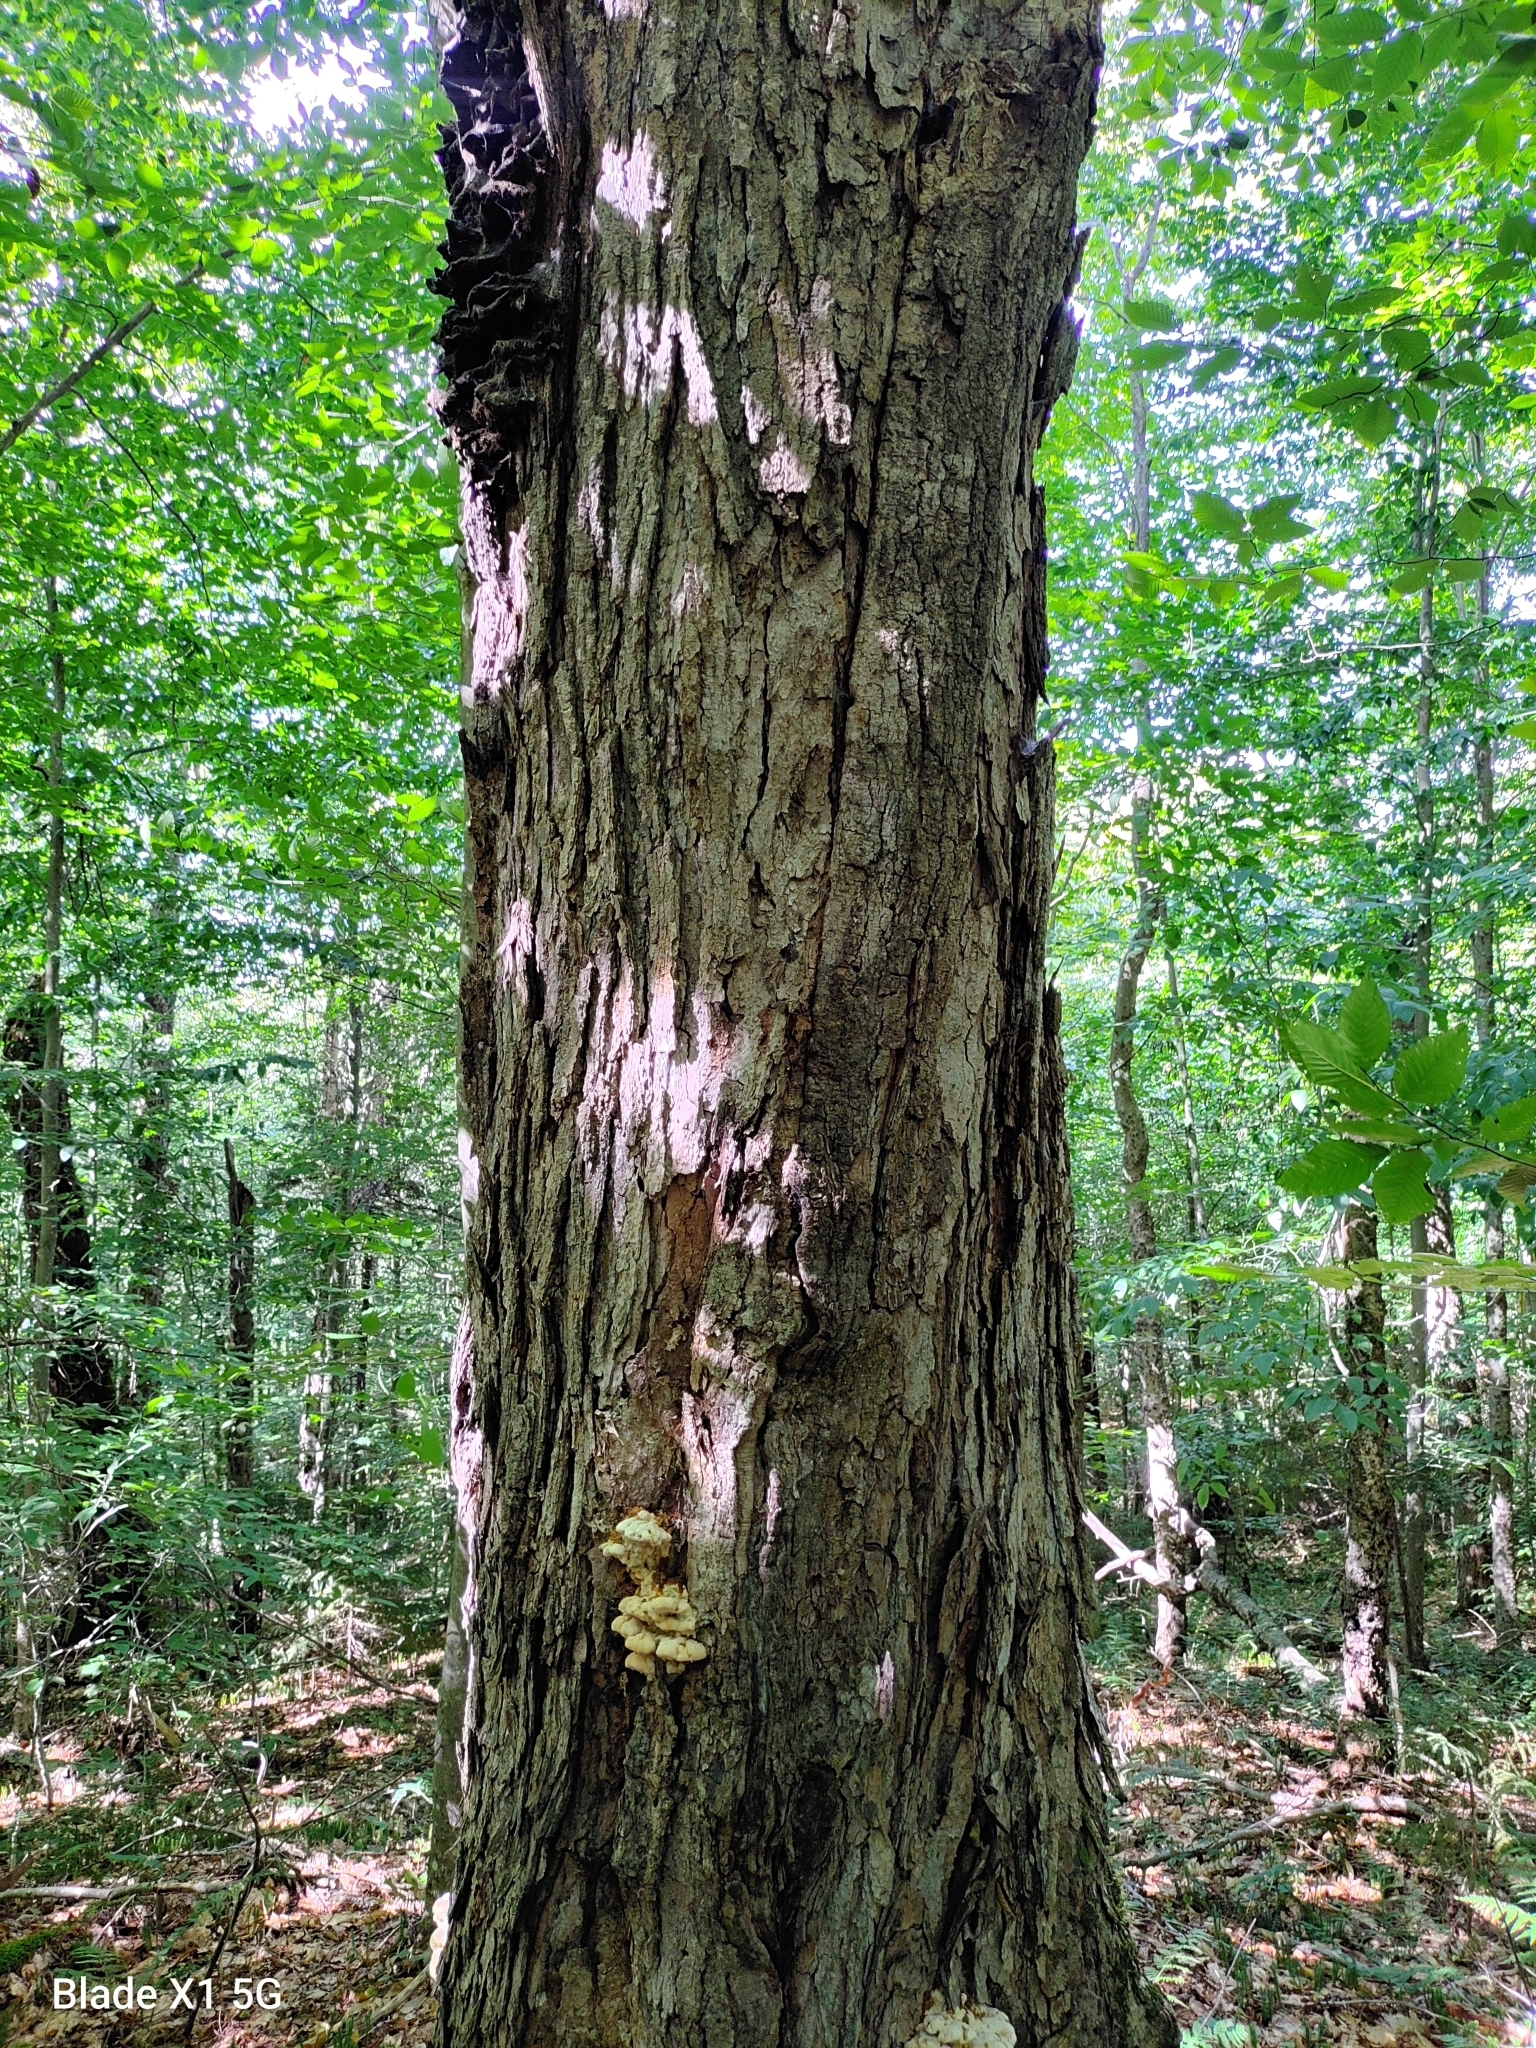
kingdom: Fungi
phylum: Basidiomycota
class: Agaricomycetes
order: Polyporales
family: Meruliaceae
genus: Climacodon
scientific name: Climacodon septentrionalis
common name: Northern tooth
